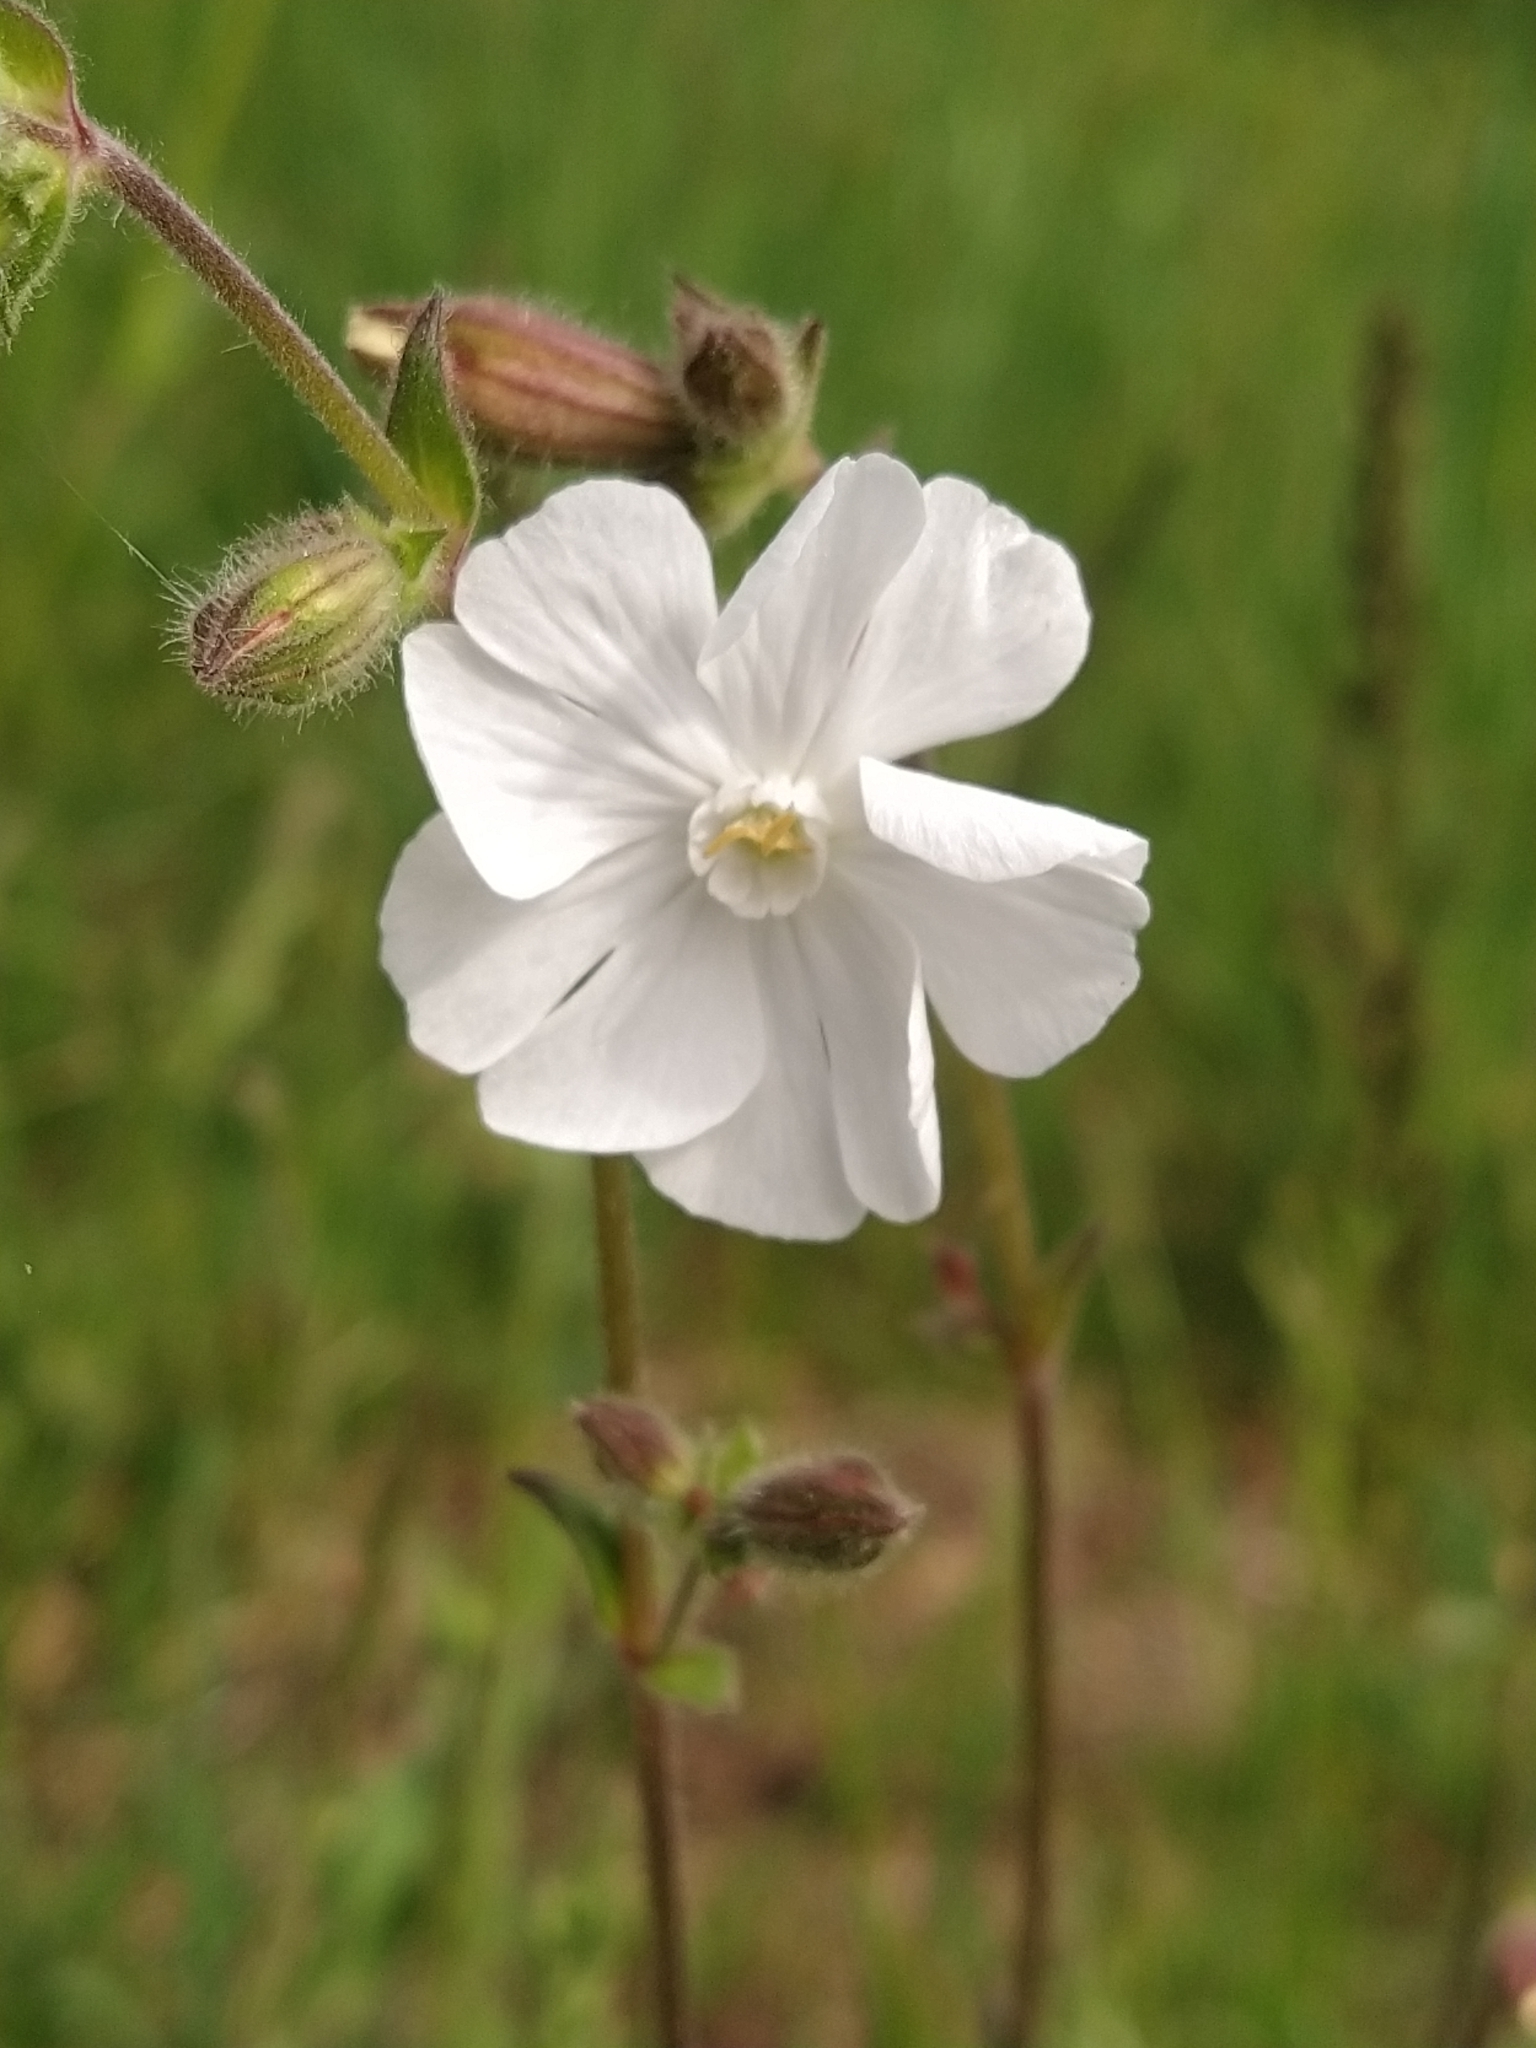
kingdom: Plantae
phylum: Tracheophyta
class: Magnoliopsida
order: Caryophyllales
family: Caryophyllaceae
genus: Silene
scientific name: Silene latifolia
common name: White campion
